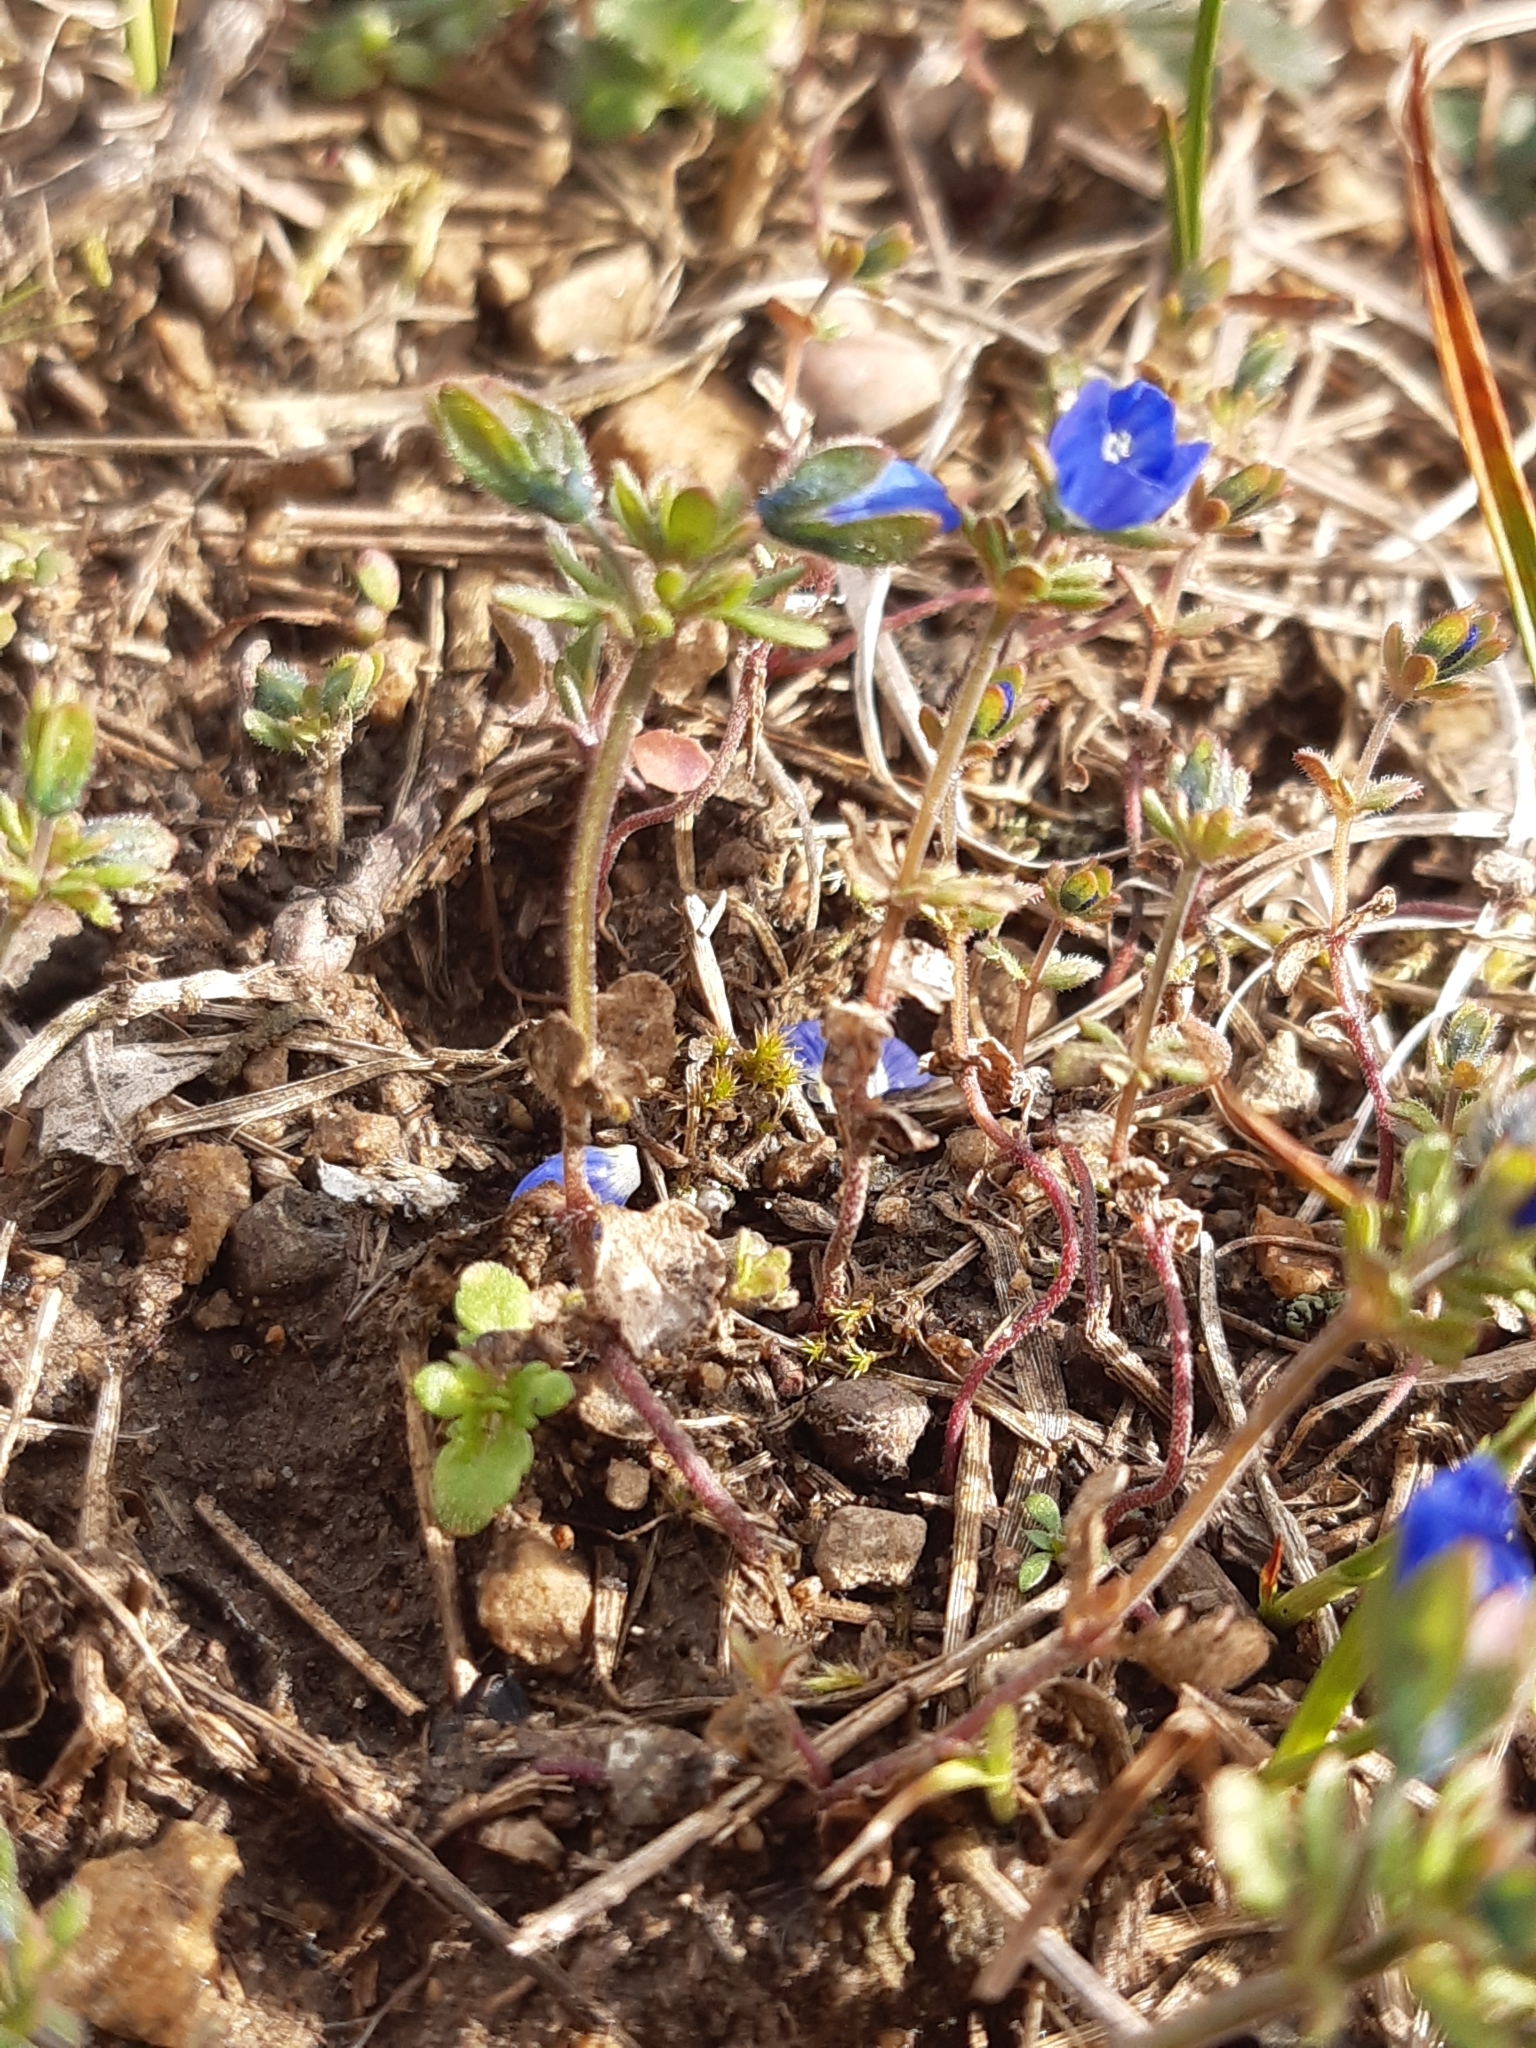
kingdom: Plantae
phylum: Tracheophyta
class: Magnoliopsida
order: Lamiales
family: Plantaginaceae
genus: Veronica
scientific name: Veronica triphyllos
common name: Fingered speedwell
